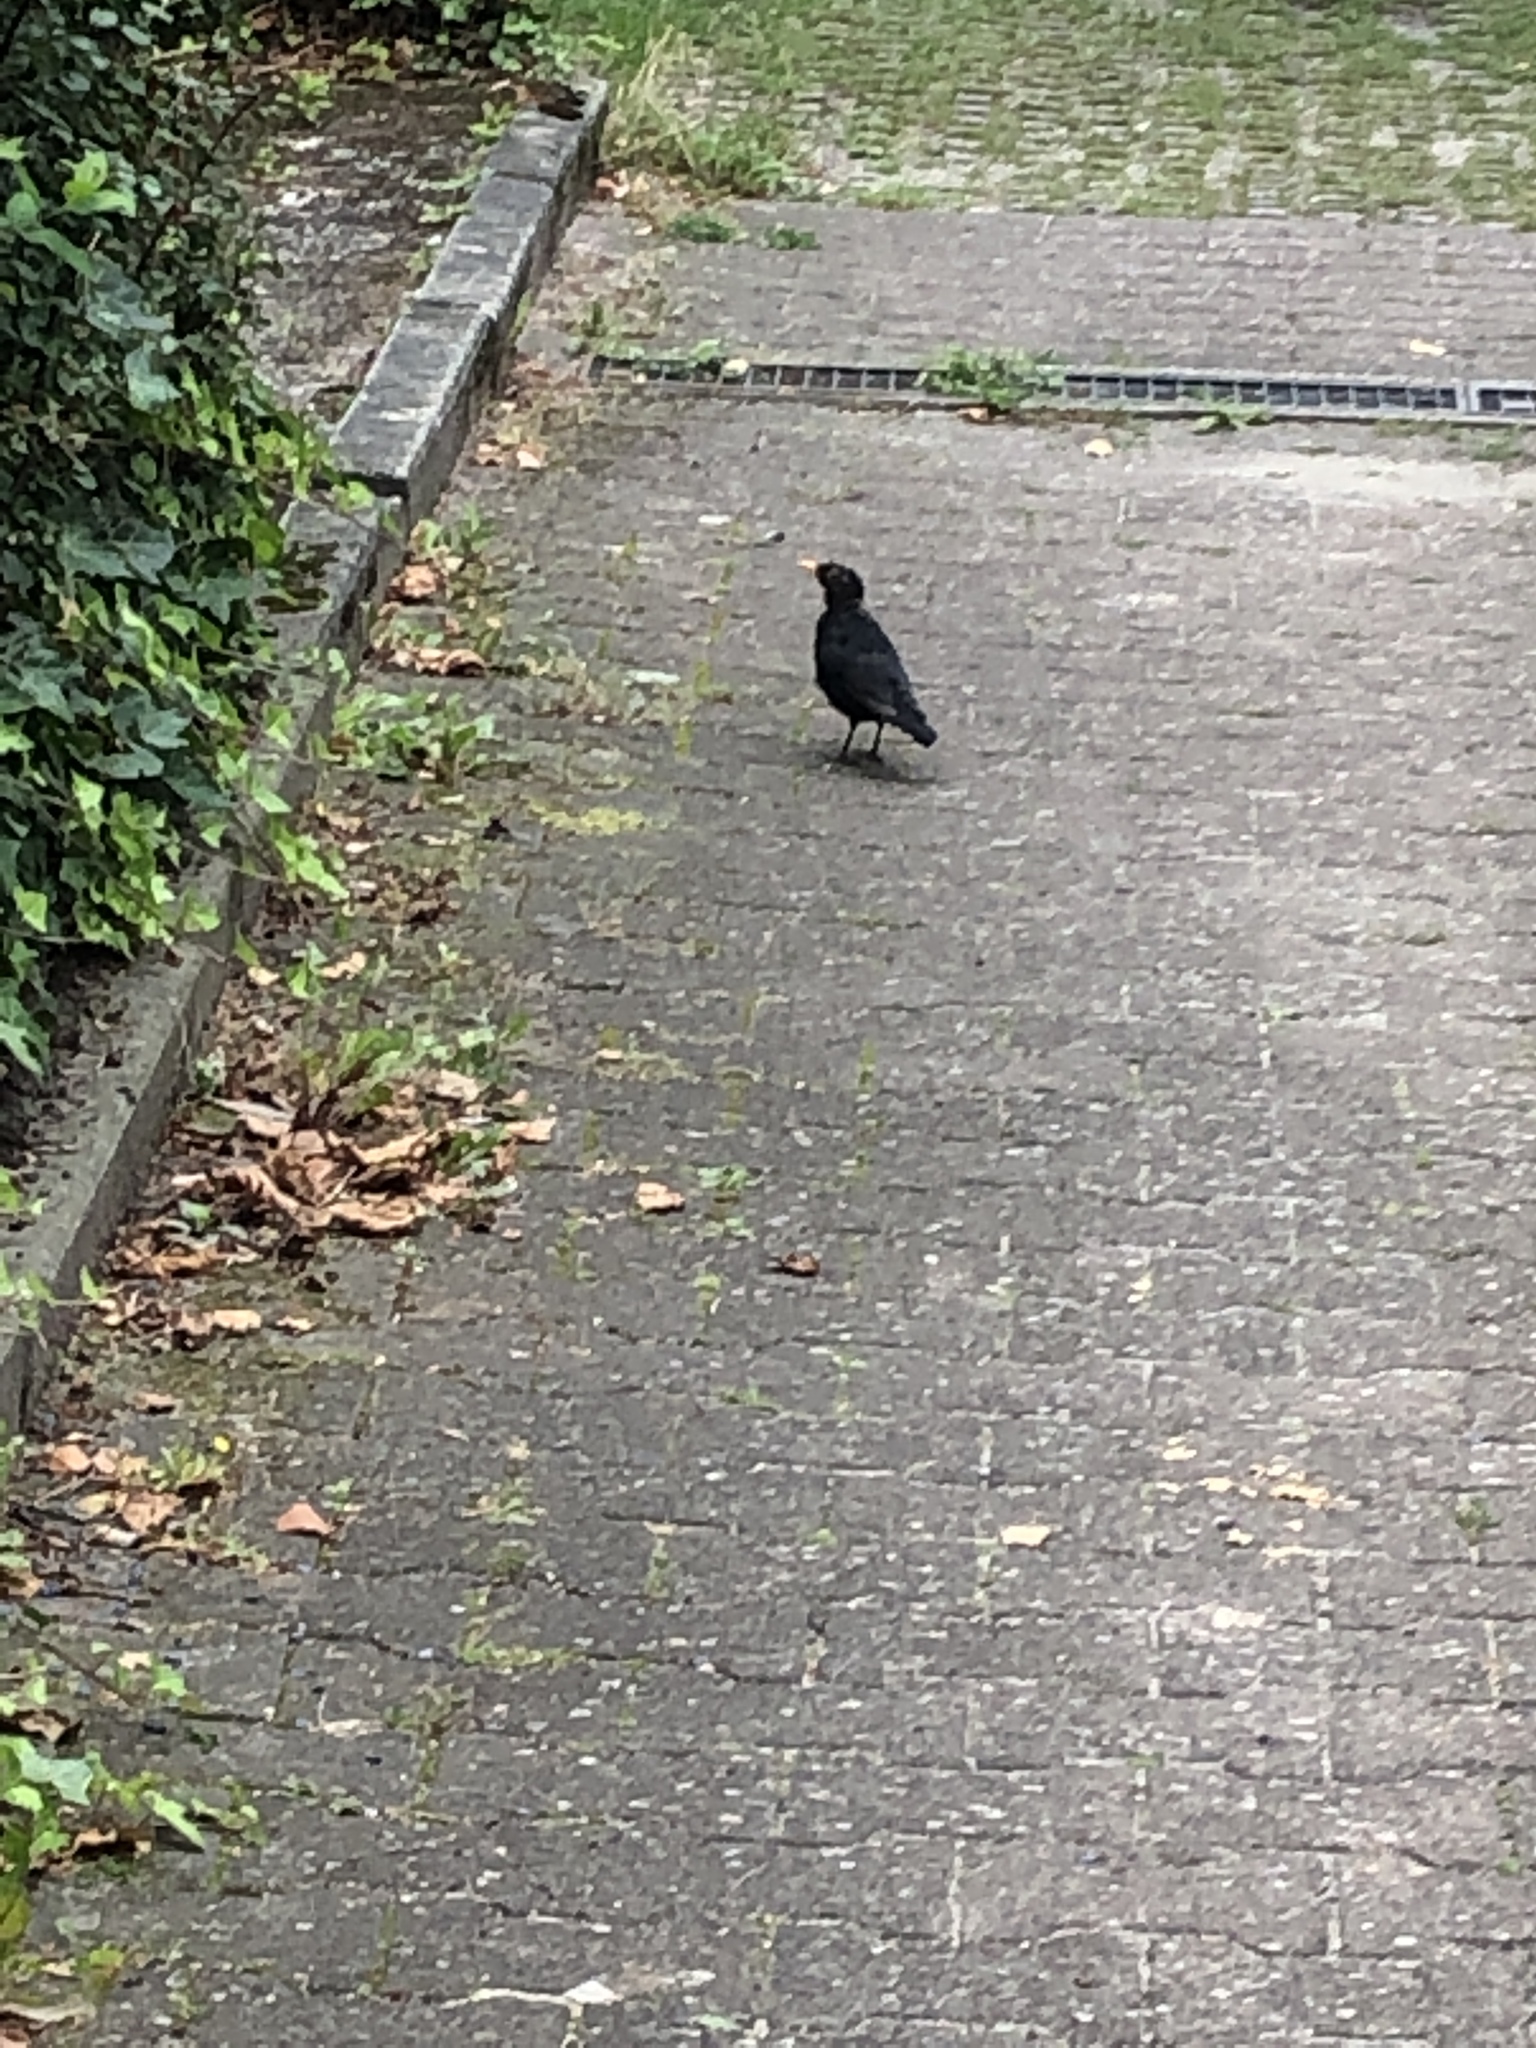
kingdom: Animalia
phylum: Chordata
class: Aves
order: Passeriformes
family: Turdidae
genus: Turdus
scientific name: Turdus merula
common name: Common blackbird
